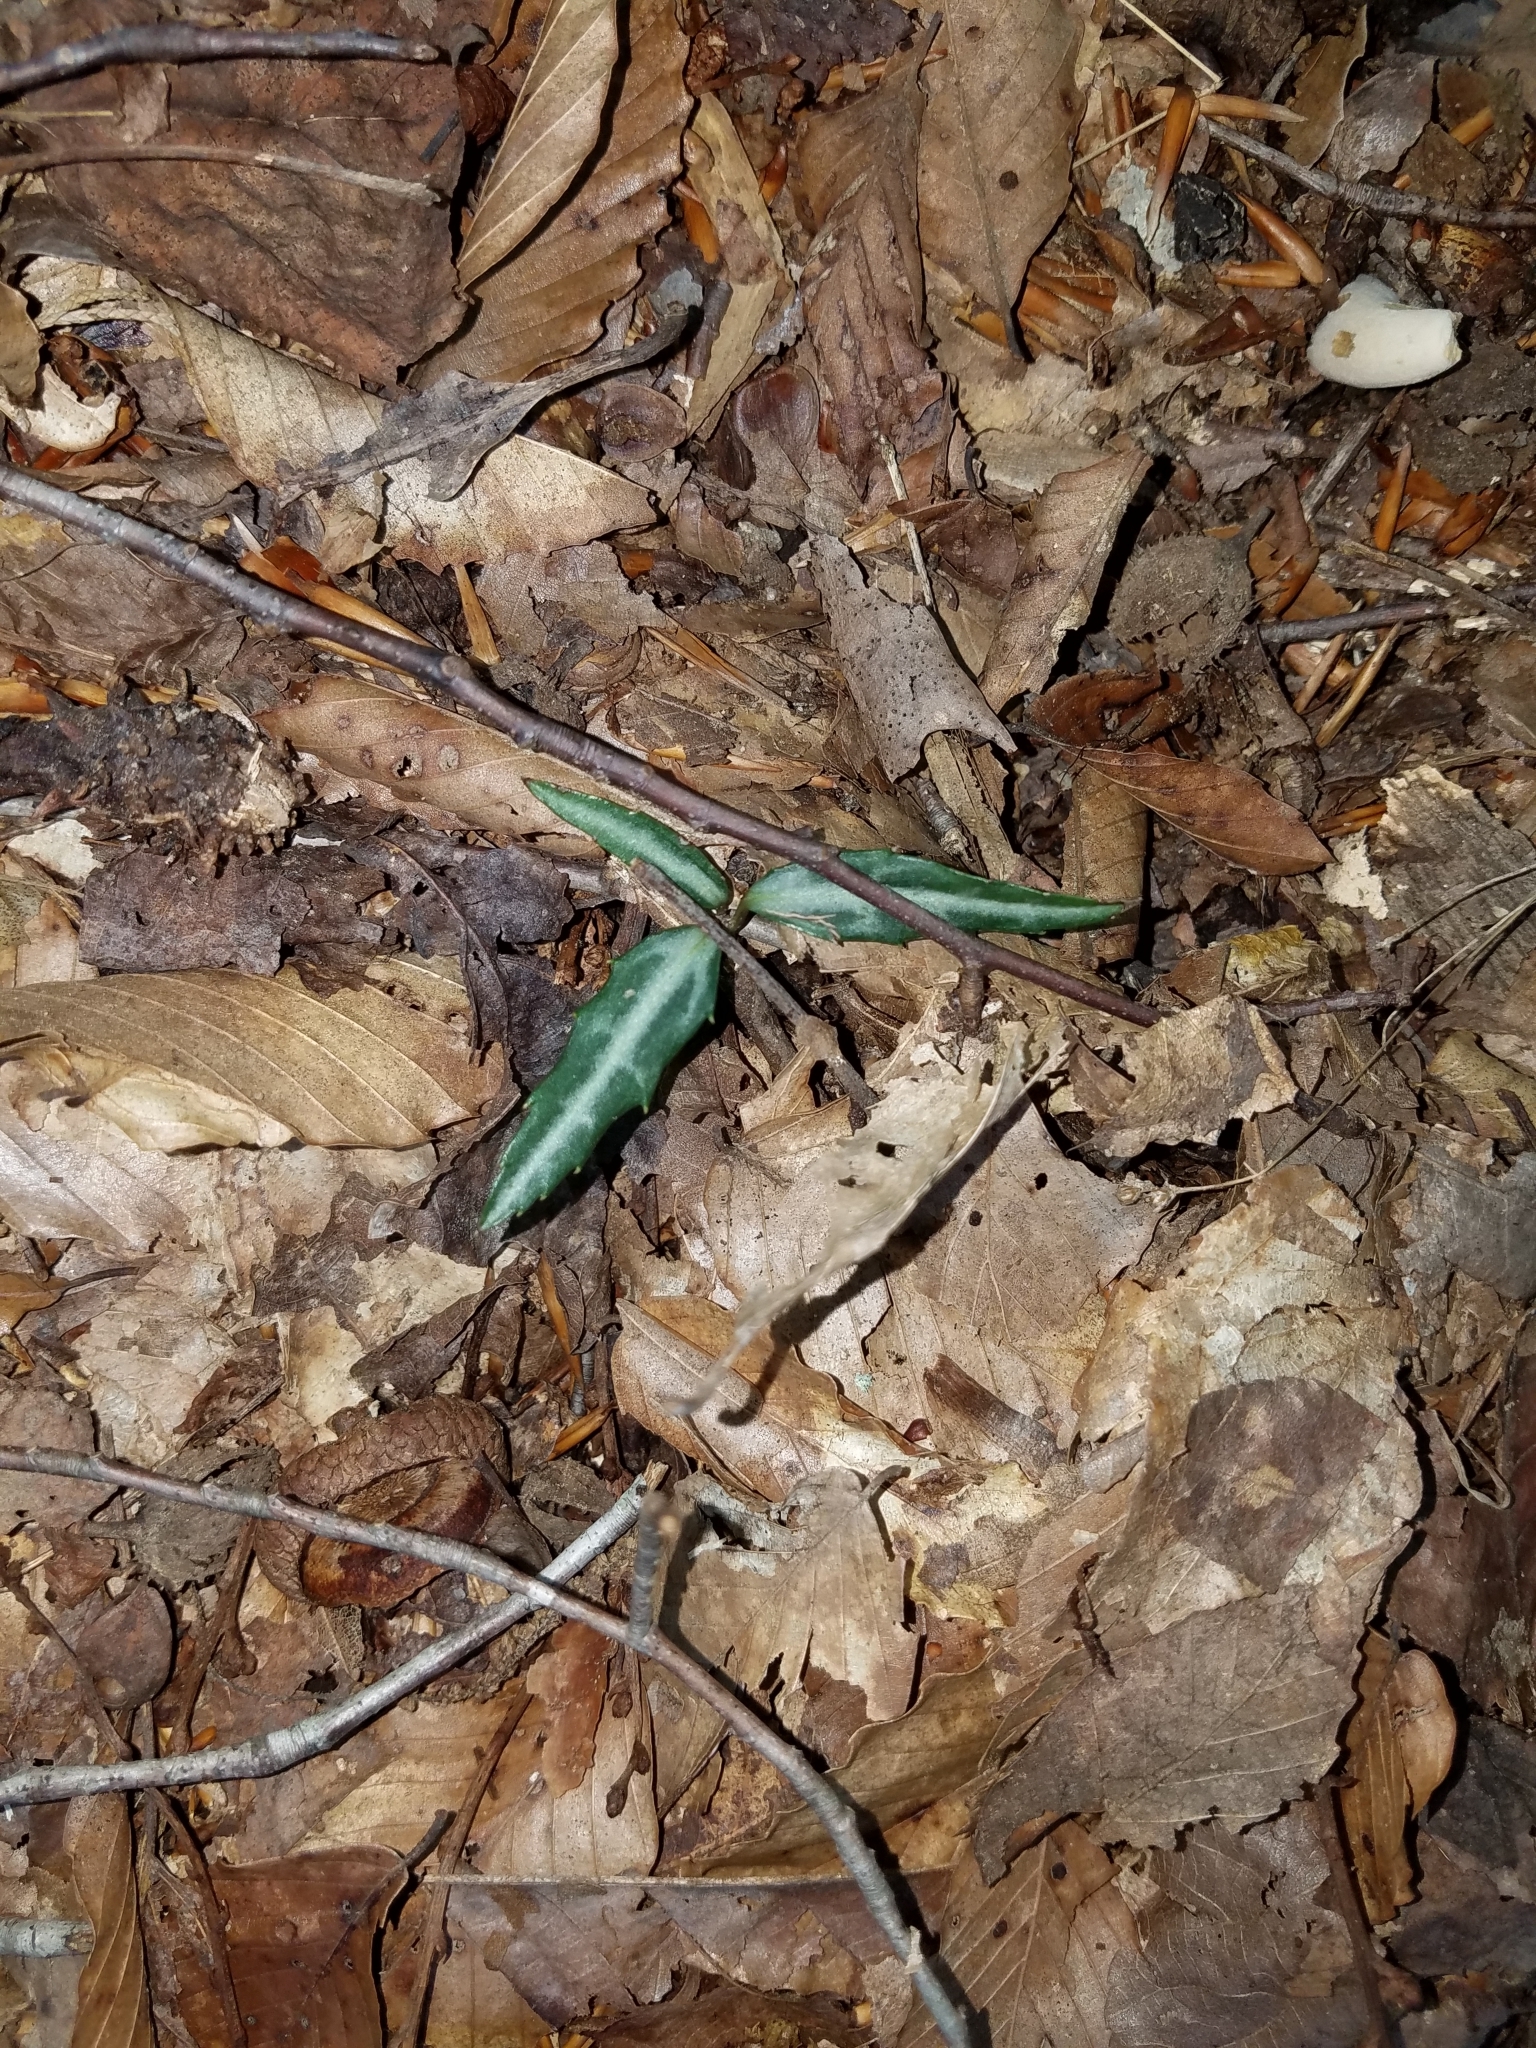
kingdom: Plantae
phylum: Tracheophyta
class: Magnoliopsida
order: Ericales
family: Ericaceae
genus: Chimaphila
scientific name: Chimaphila maculata
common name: Spotted pipsissewa
